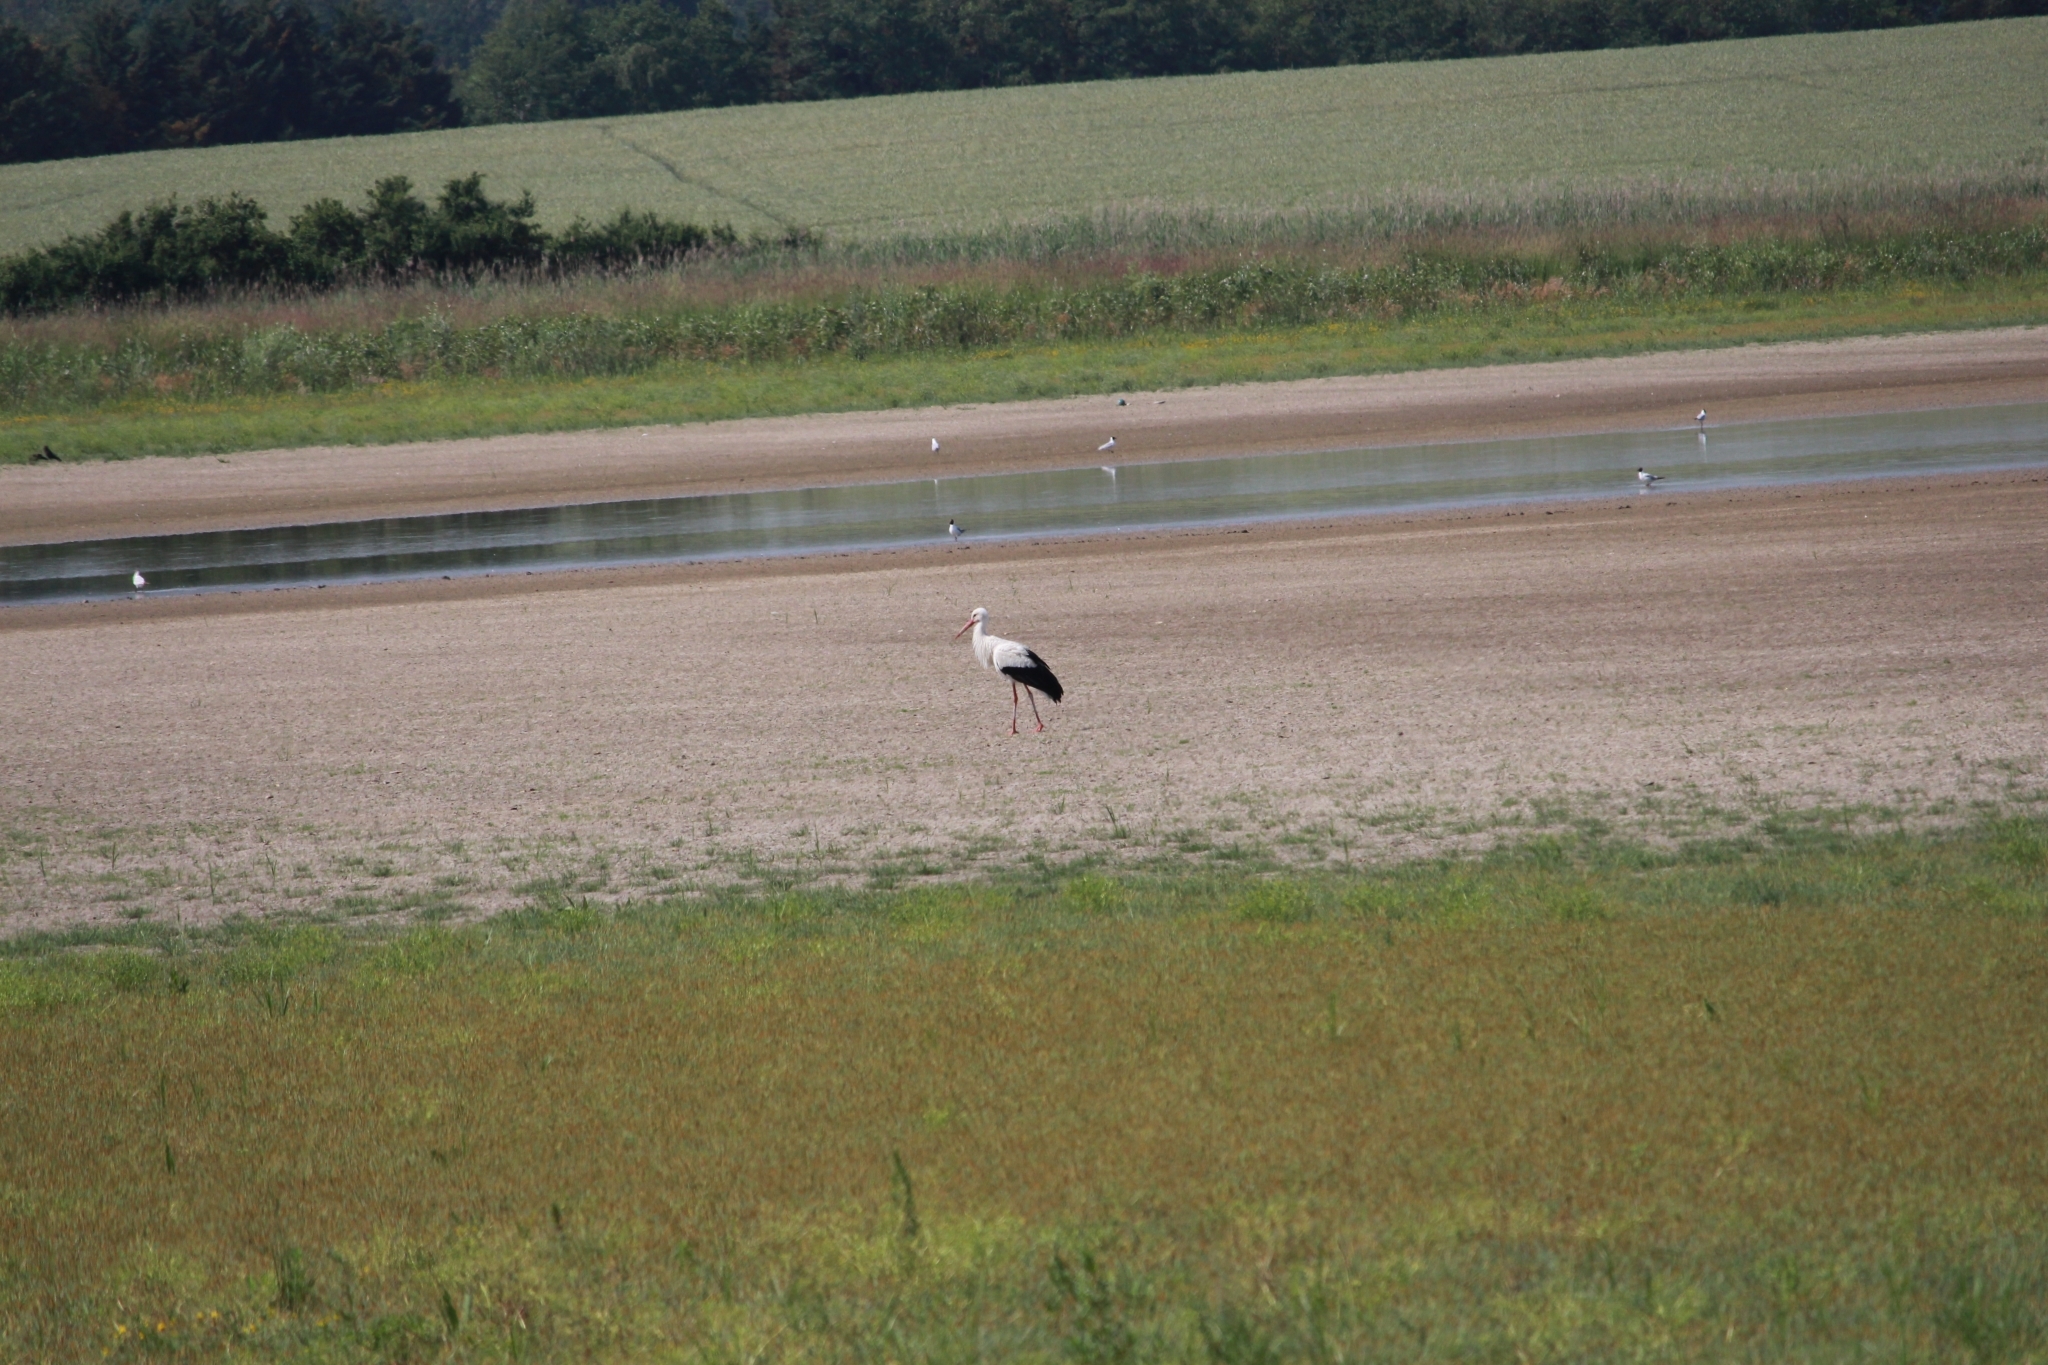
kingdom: Animalia
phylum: Chordata
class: Aves
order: Ciconiiformes
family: Ciconiidae
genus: Ciconia
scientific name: Ciconia ciconia
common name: White stork
